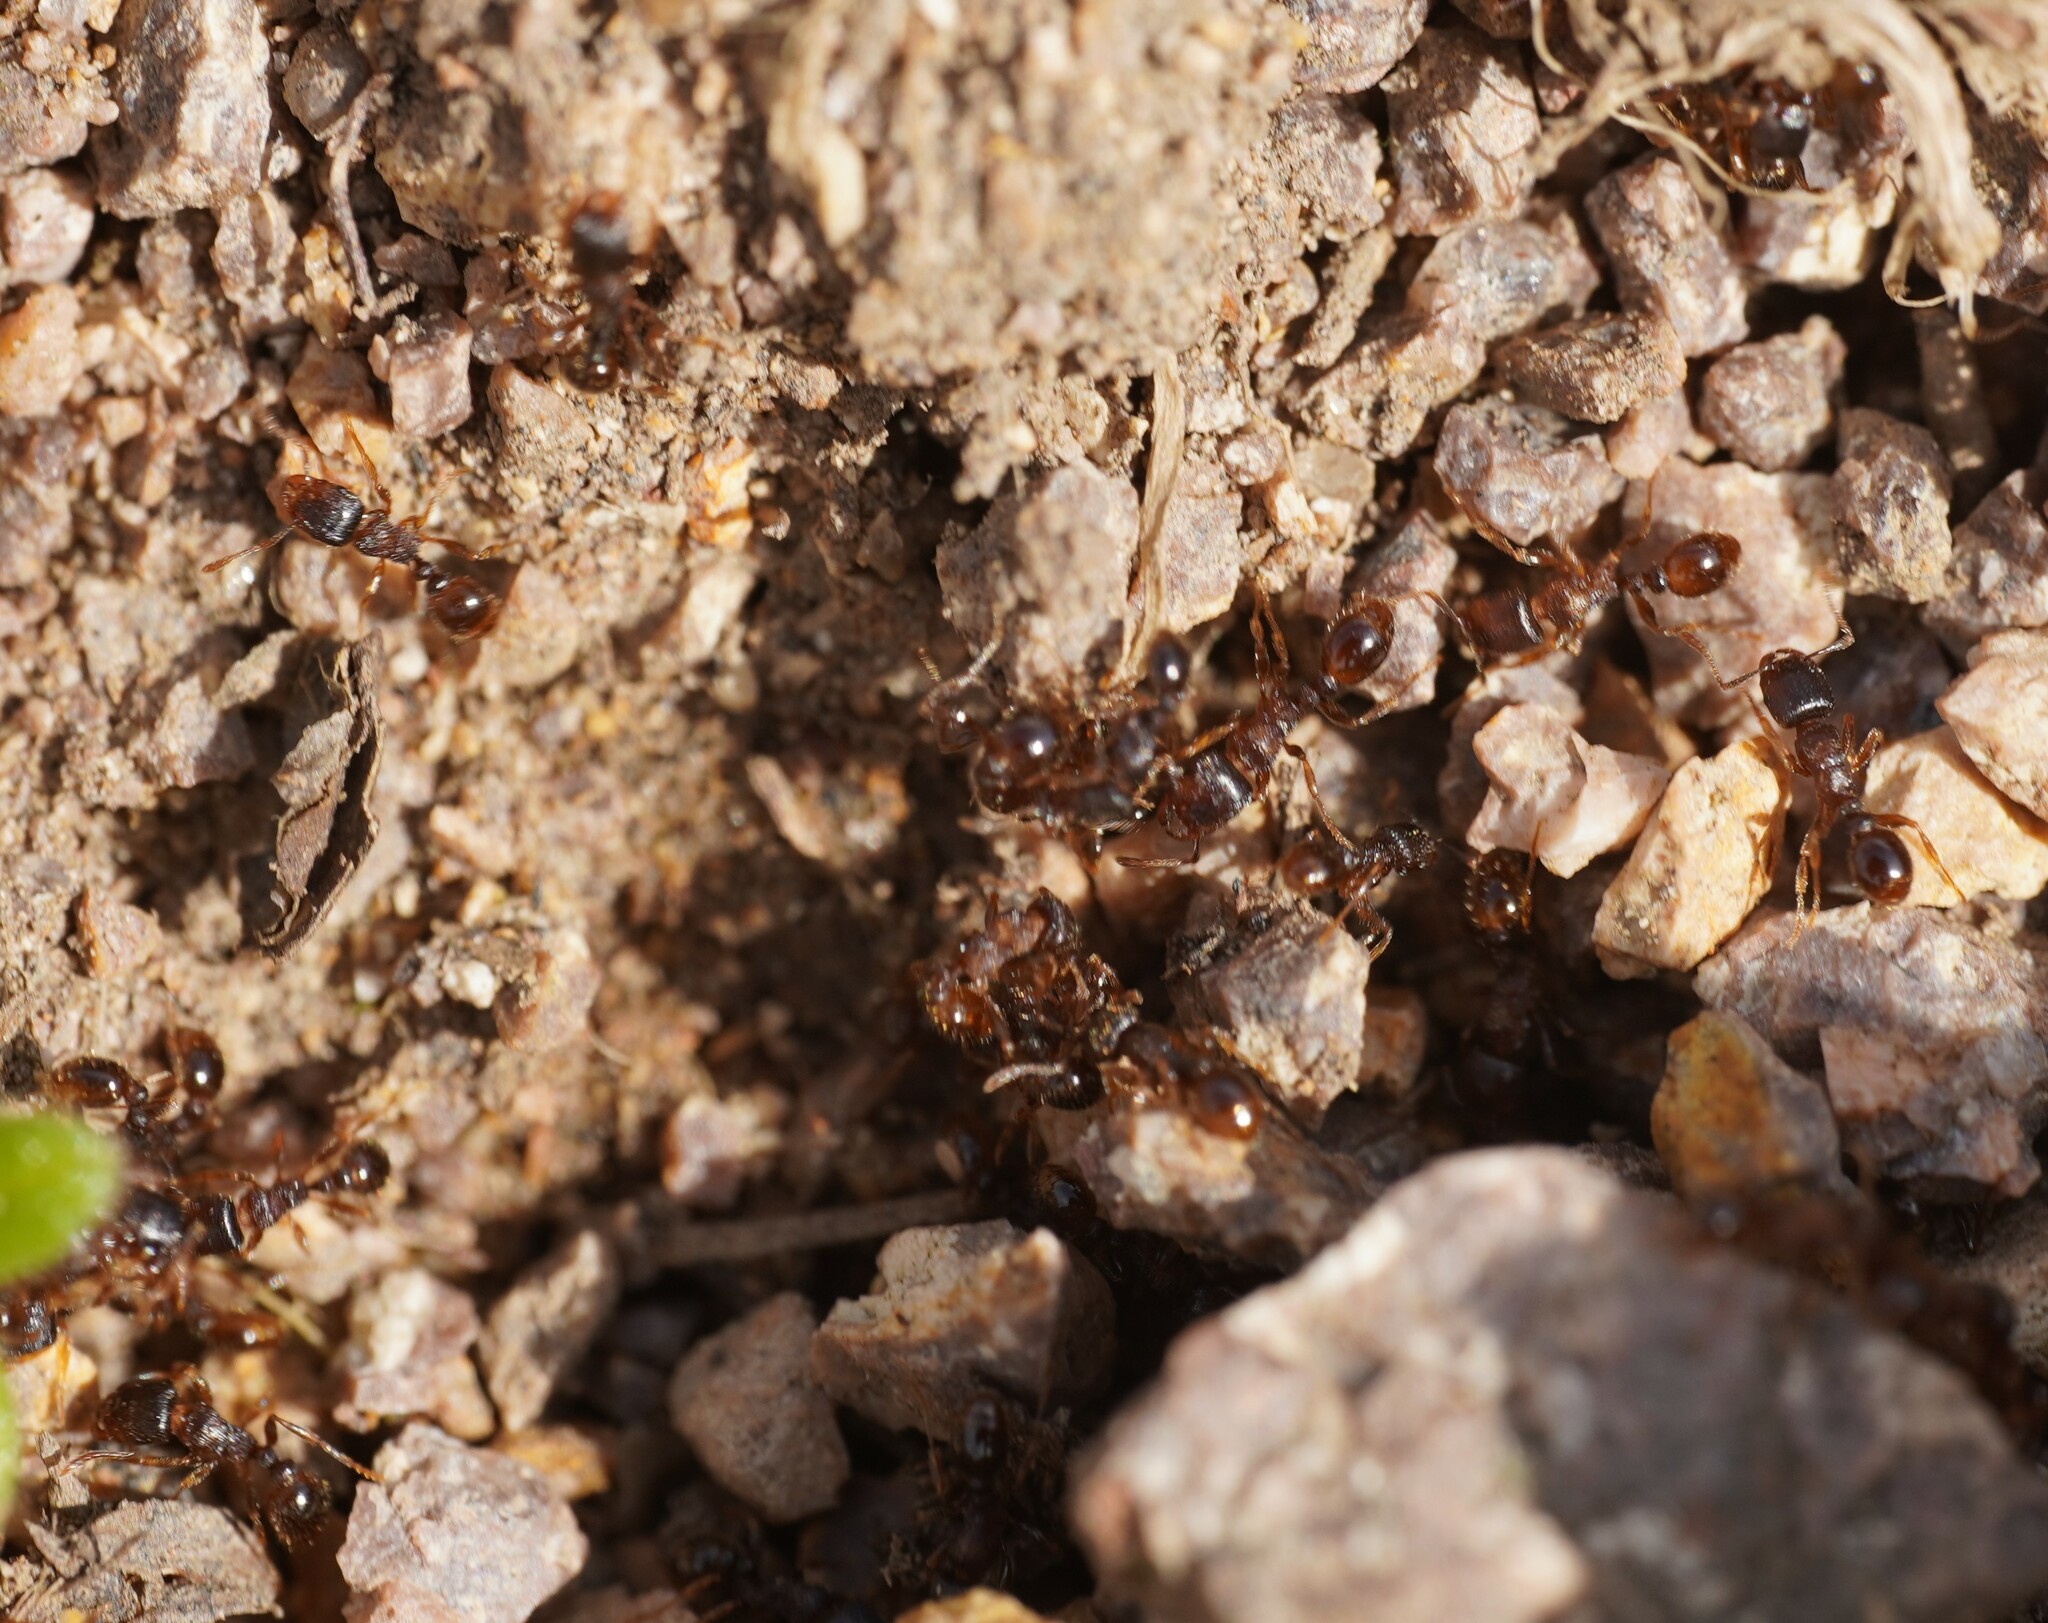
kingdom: Animalia
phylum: Arthropoda
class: Insecta
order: Hymenoptera
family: Formicidae
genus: Tetramorium
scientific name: Tetramorium
